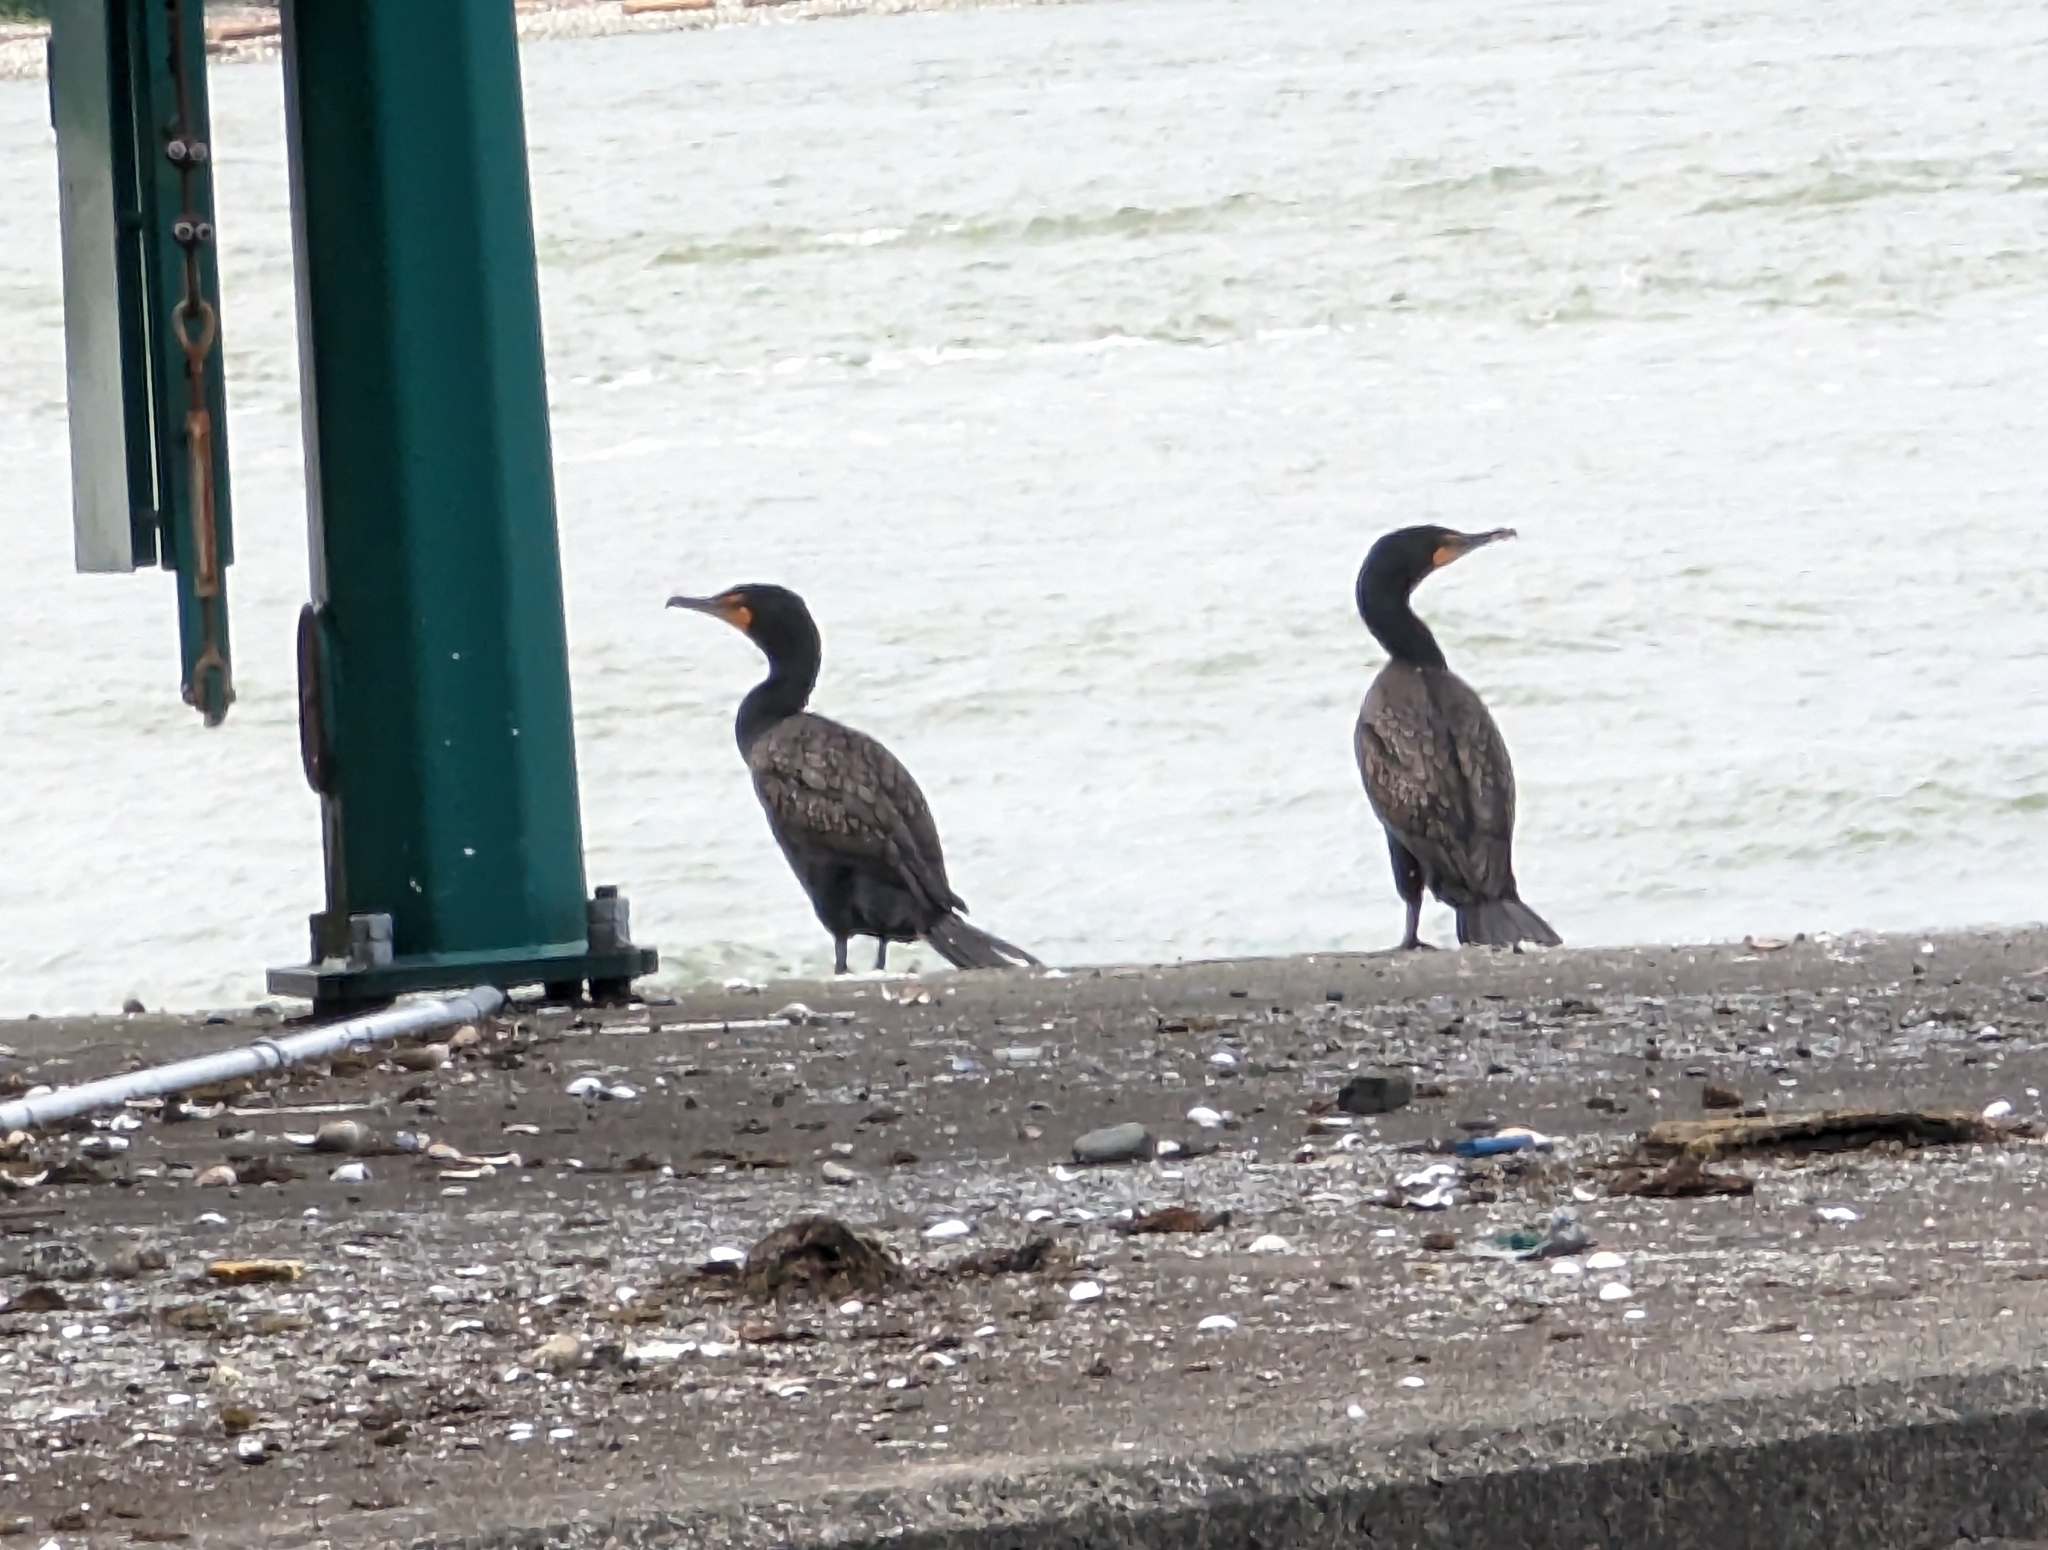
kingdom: Animalia
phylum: Chordata
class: Aves
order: Suliformes
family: Phalacrocoracidae
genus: Phalacrocorax
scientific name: Phalacrocorax auritus
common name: Double-crested cormorant
